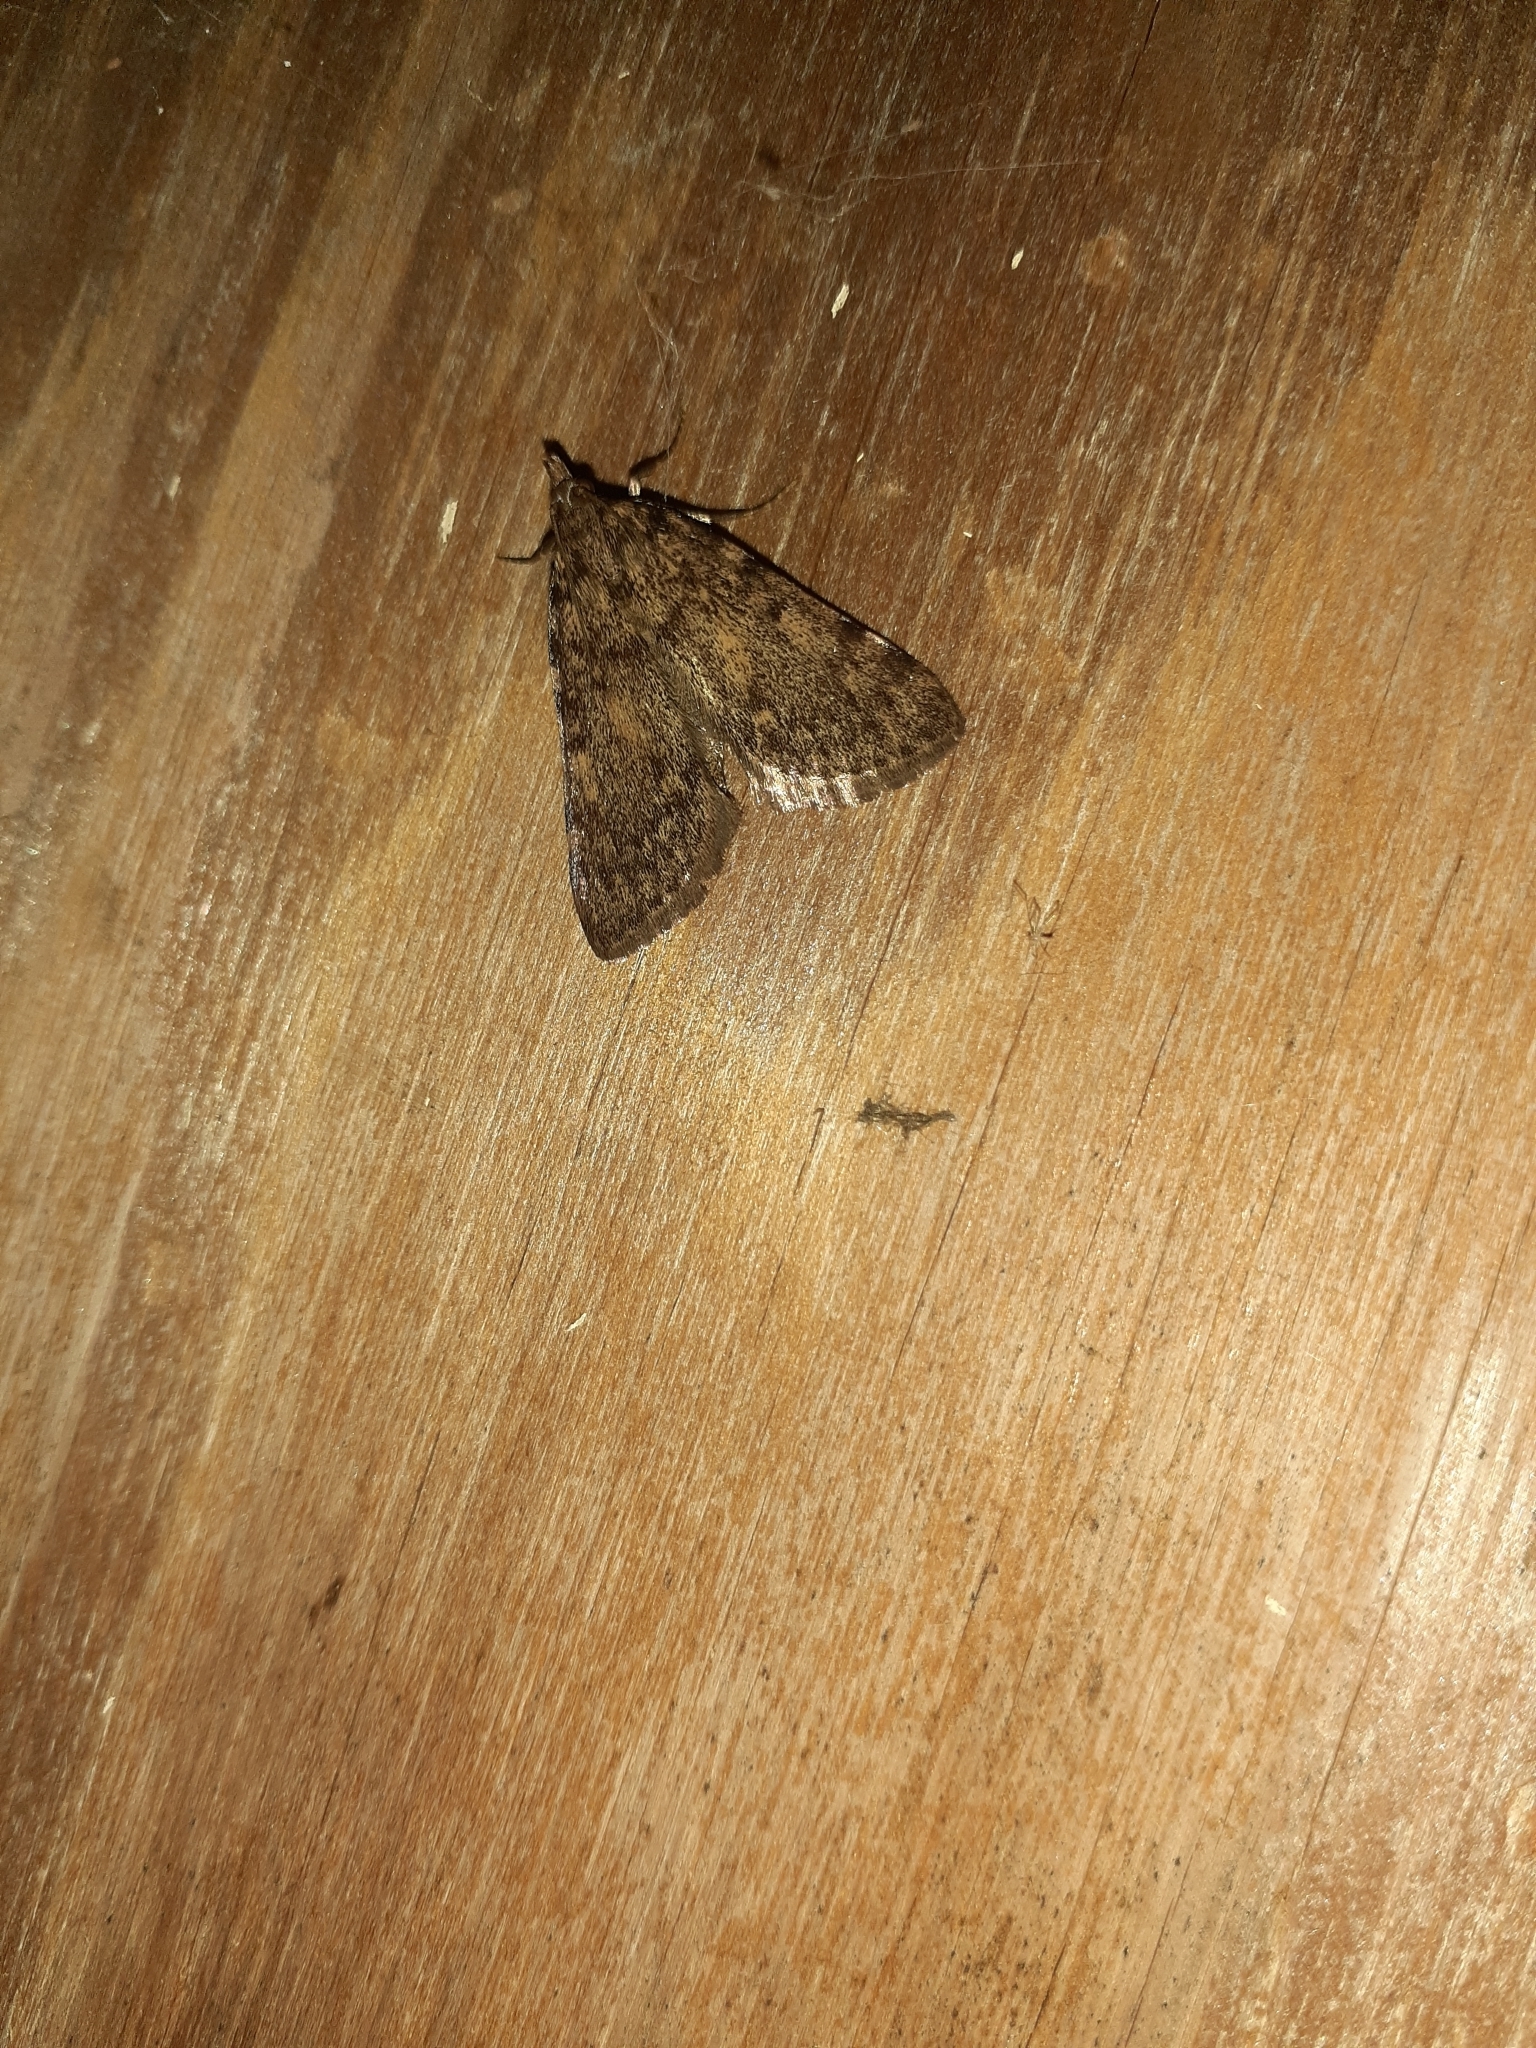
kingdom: Animalia
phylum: Arthropoda
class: Insecta
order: Lepidoptera
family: Pyralidae
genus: Aglossa
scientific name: Aglossa pinguinalis
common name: Large tabby
